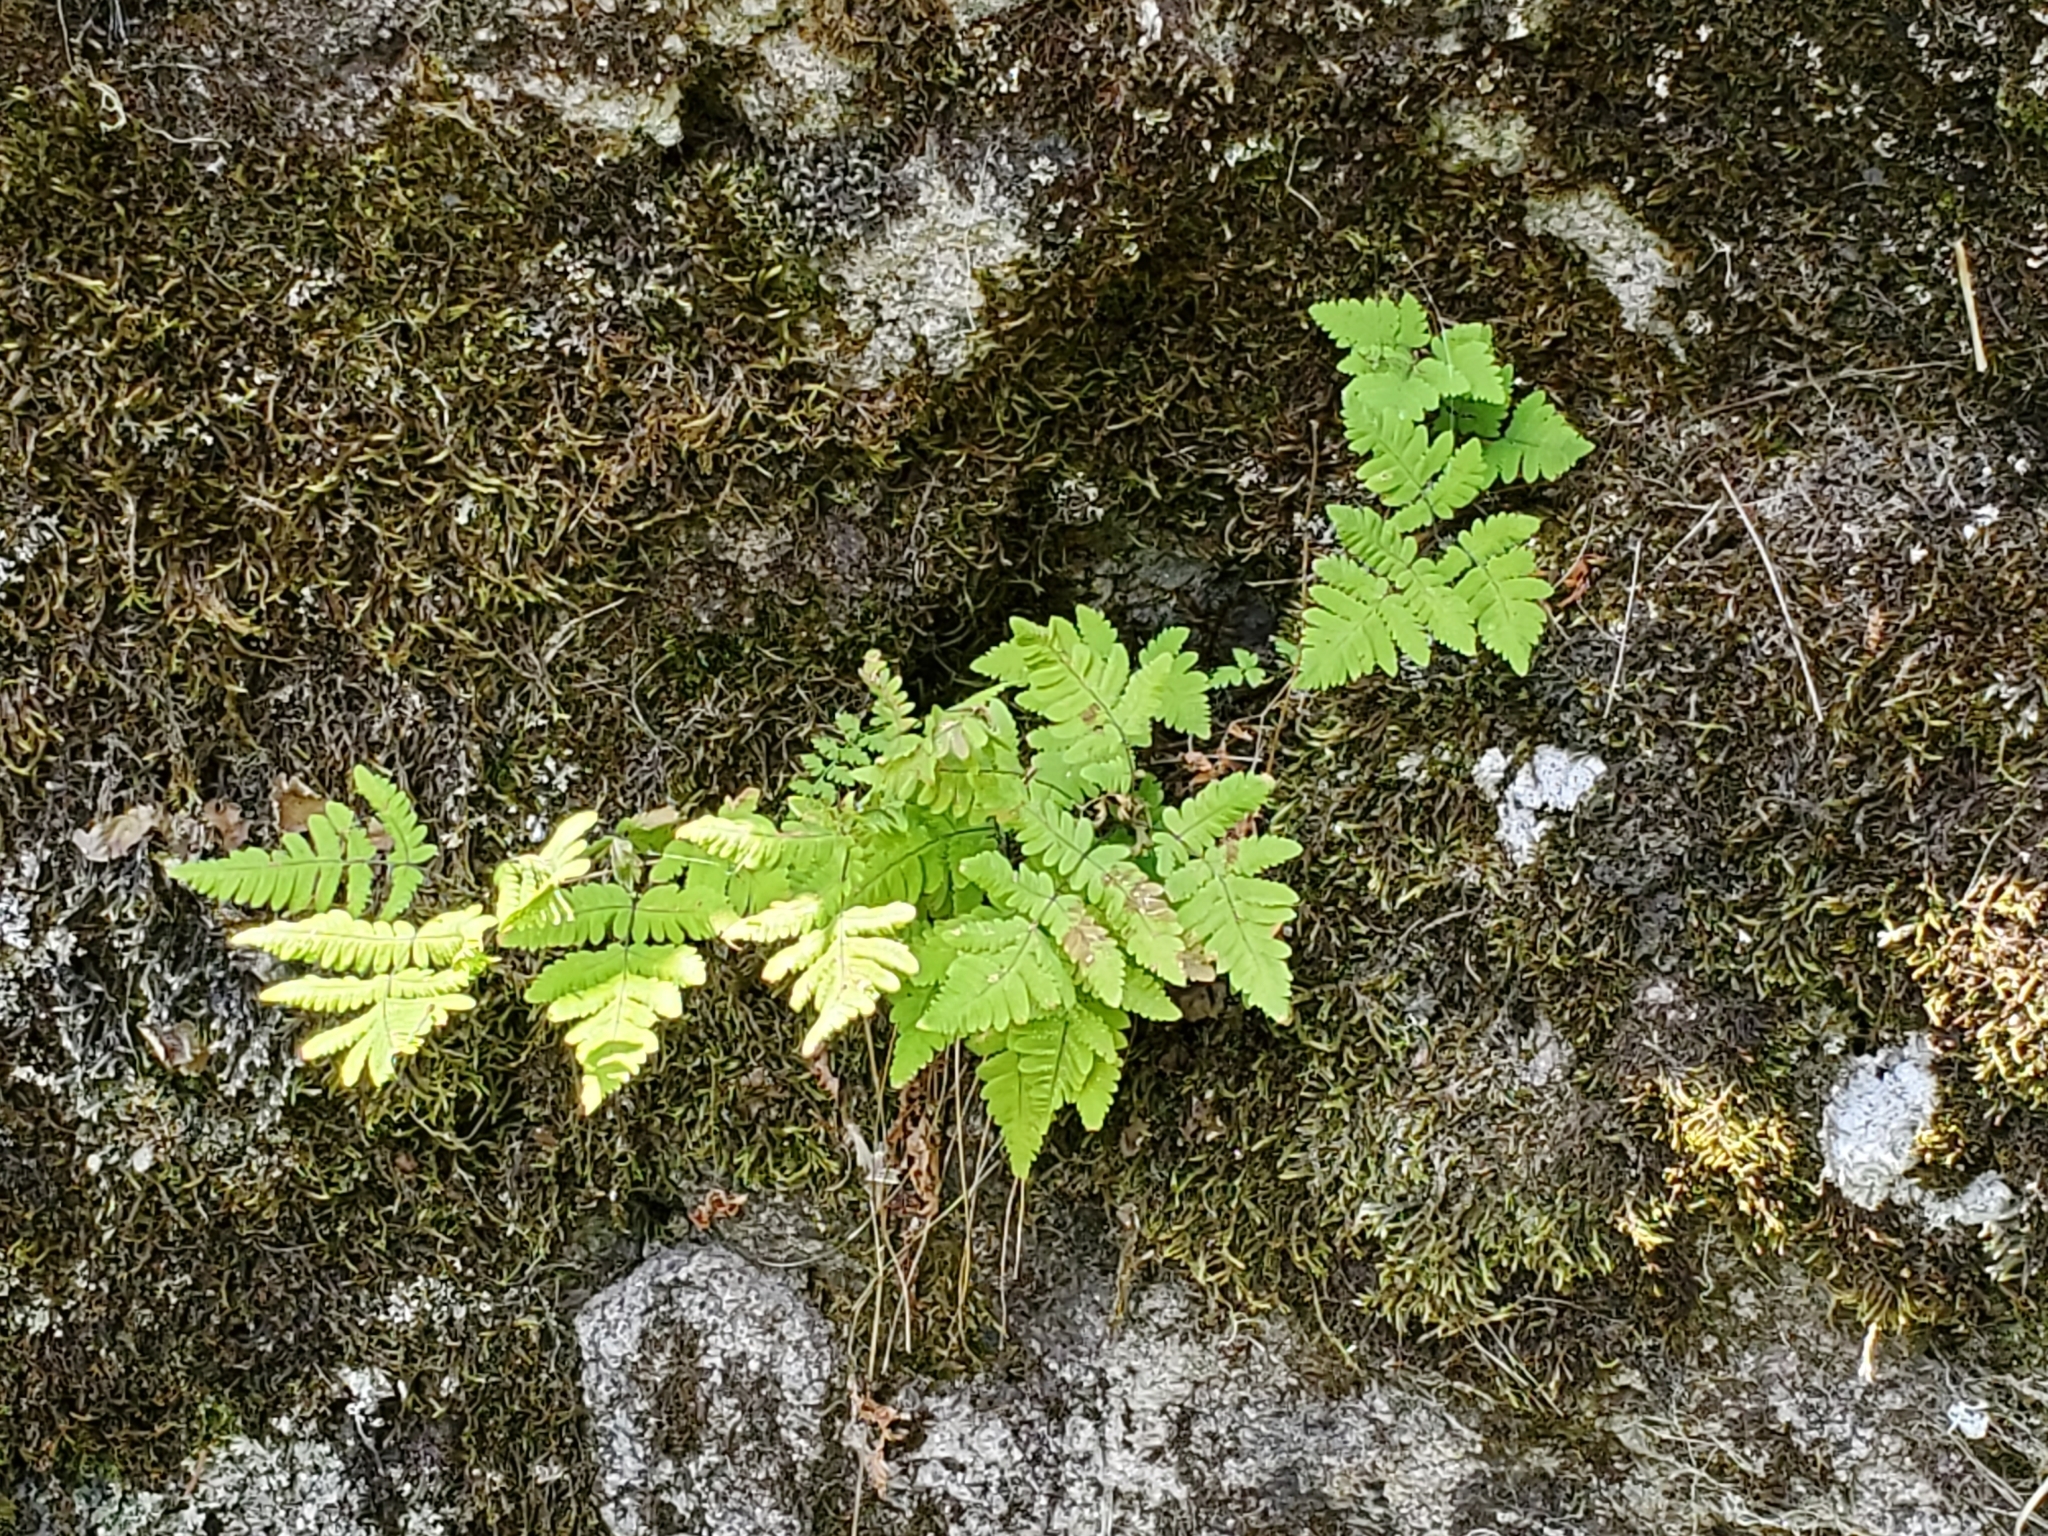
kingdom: Plantae
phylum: Tracheophyta
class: Polypodiopsida
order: Polypodiales
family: Cystopteridaceae
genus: Gymnocarpium
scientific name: Gymnocarpium dryopteris
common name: Oak fern
